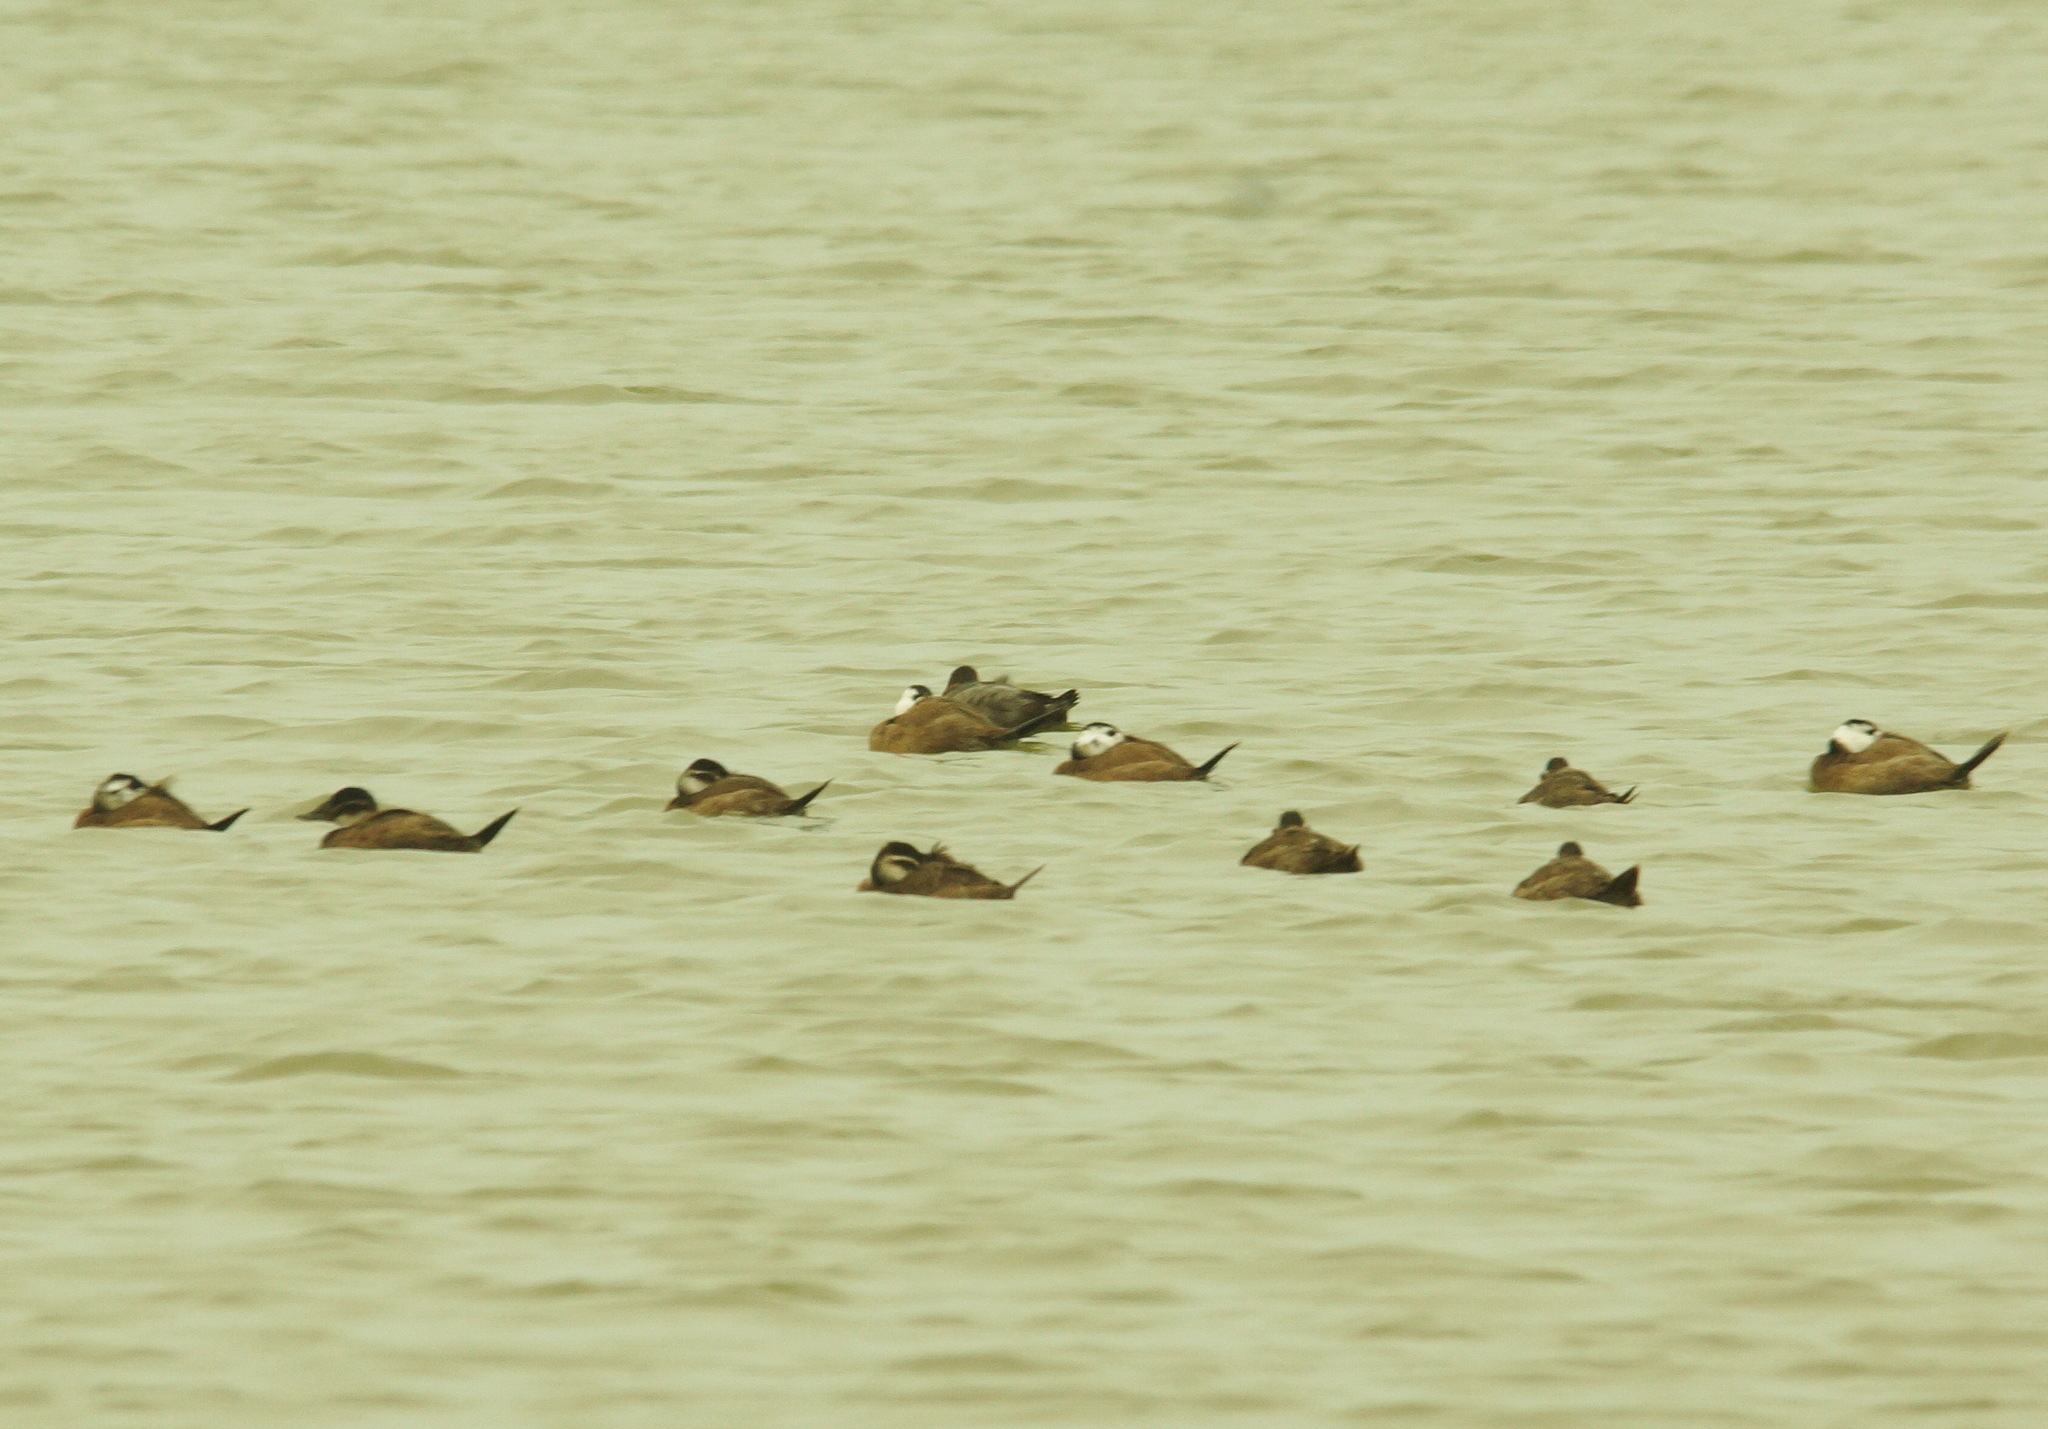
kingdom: Animalia
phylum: Chordata
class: Aves
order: Anseriformes
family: Anatidae
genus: Oxyura
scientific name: Oxyura leucocephala
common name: White-headed duck
